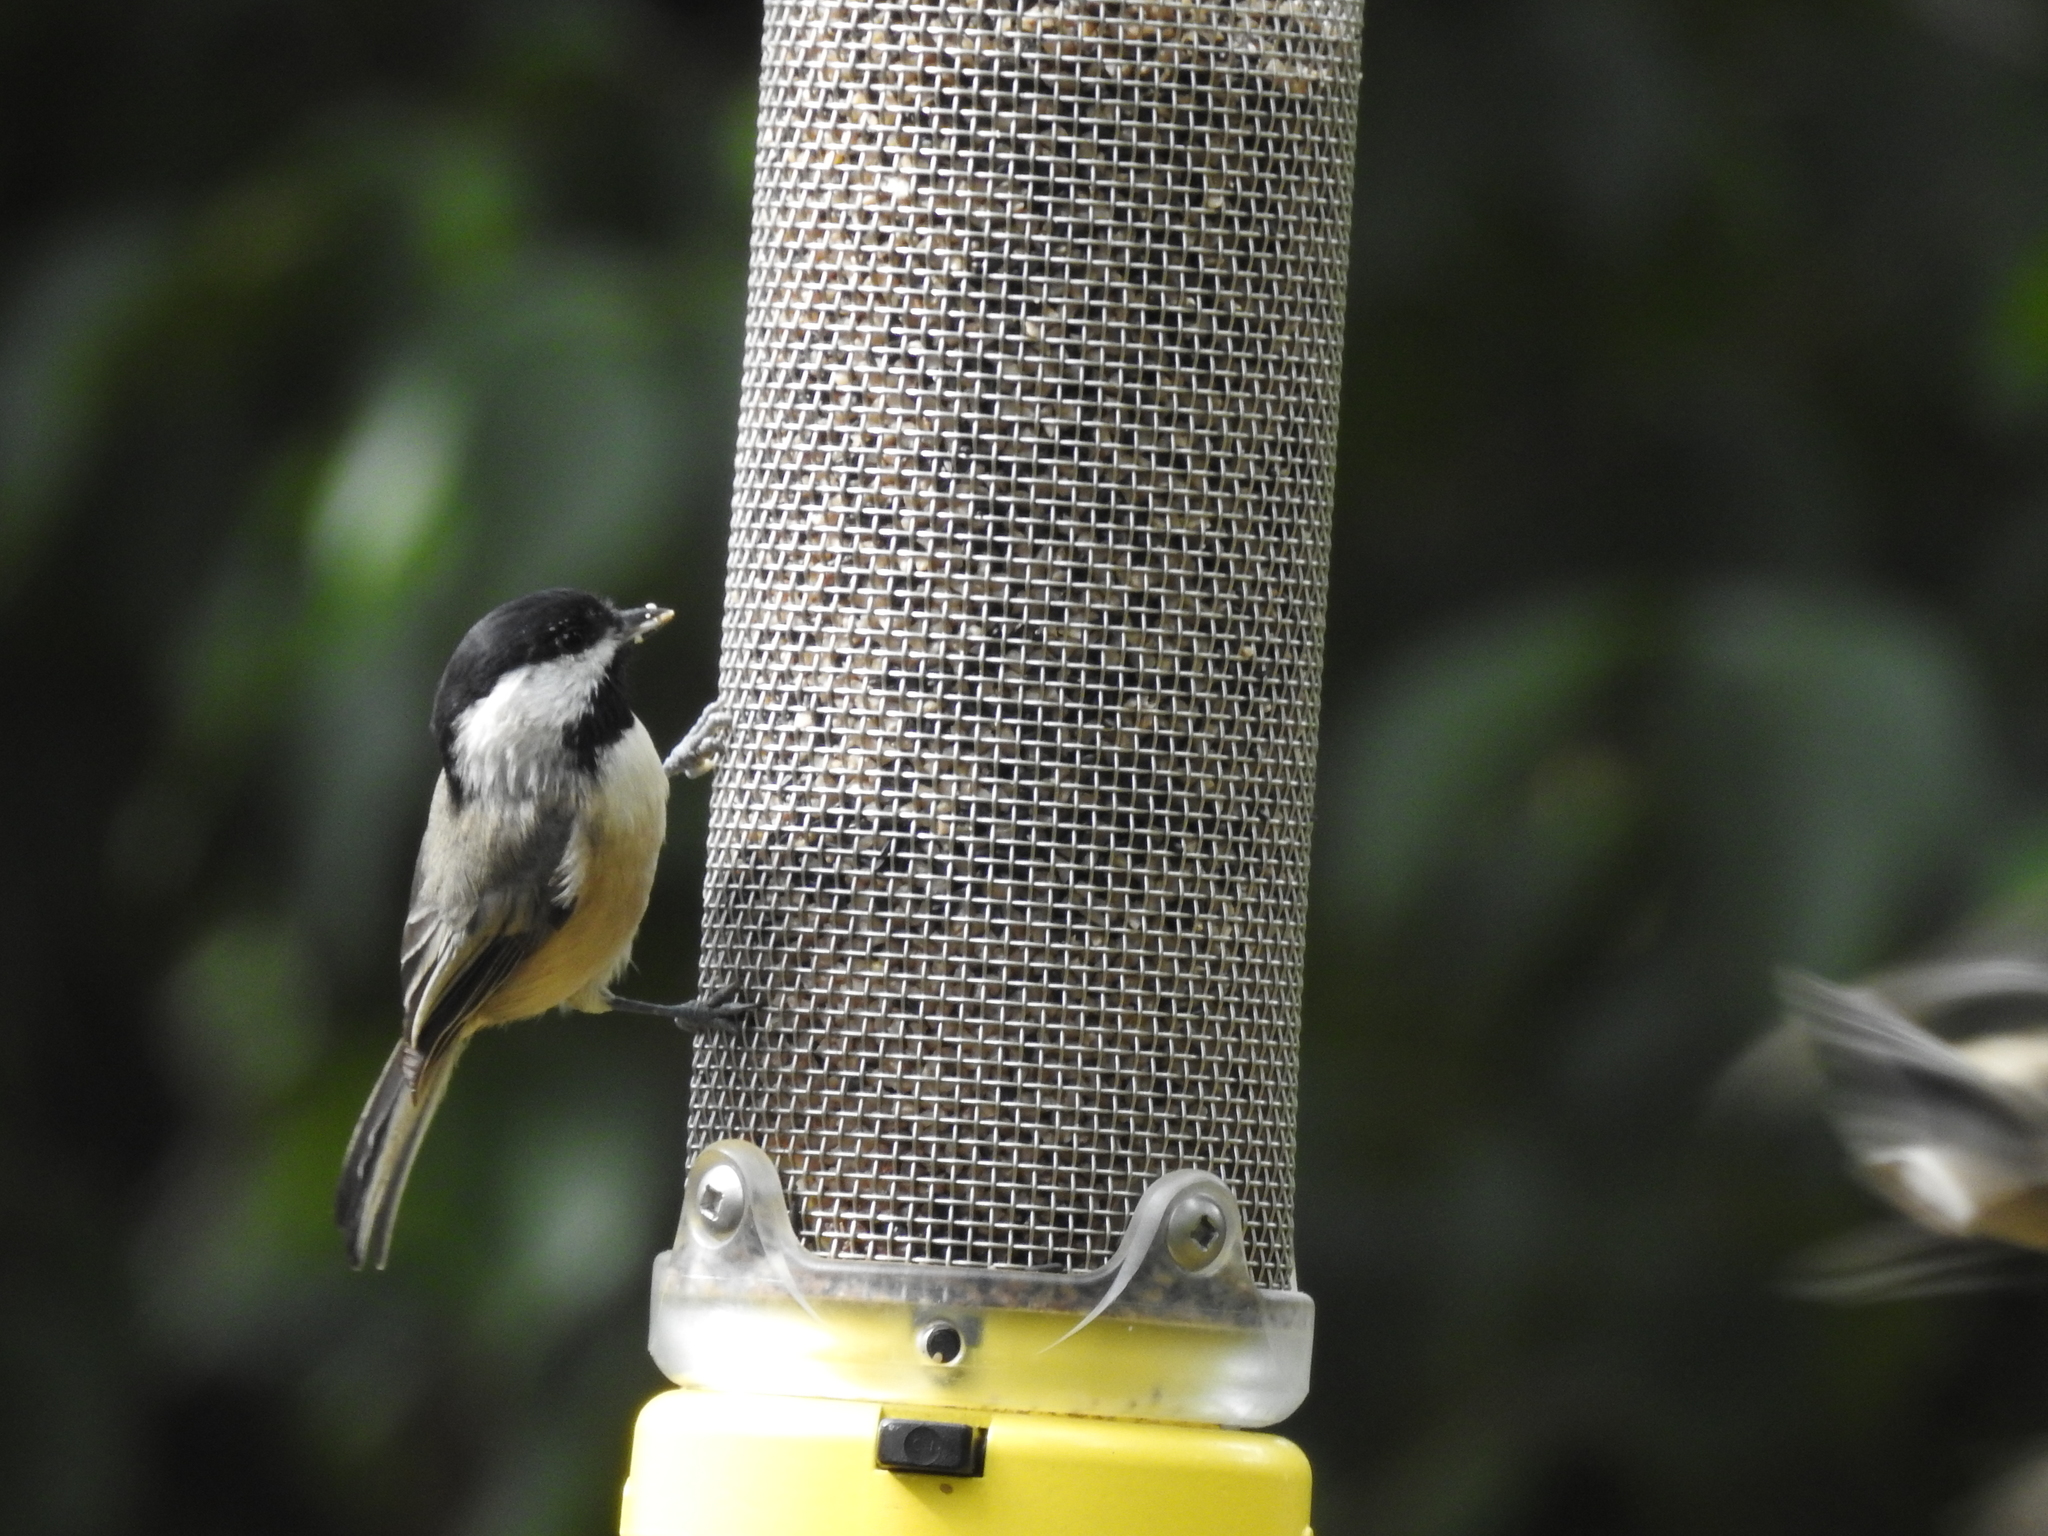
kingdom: Animalia
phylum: Chordata
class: Aves
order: Passeriformes
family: Paridae
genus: Poecile
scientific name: Poecile carolinensis
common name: Carolina chickadee
